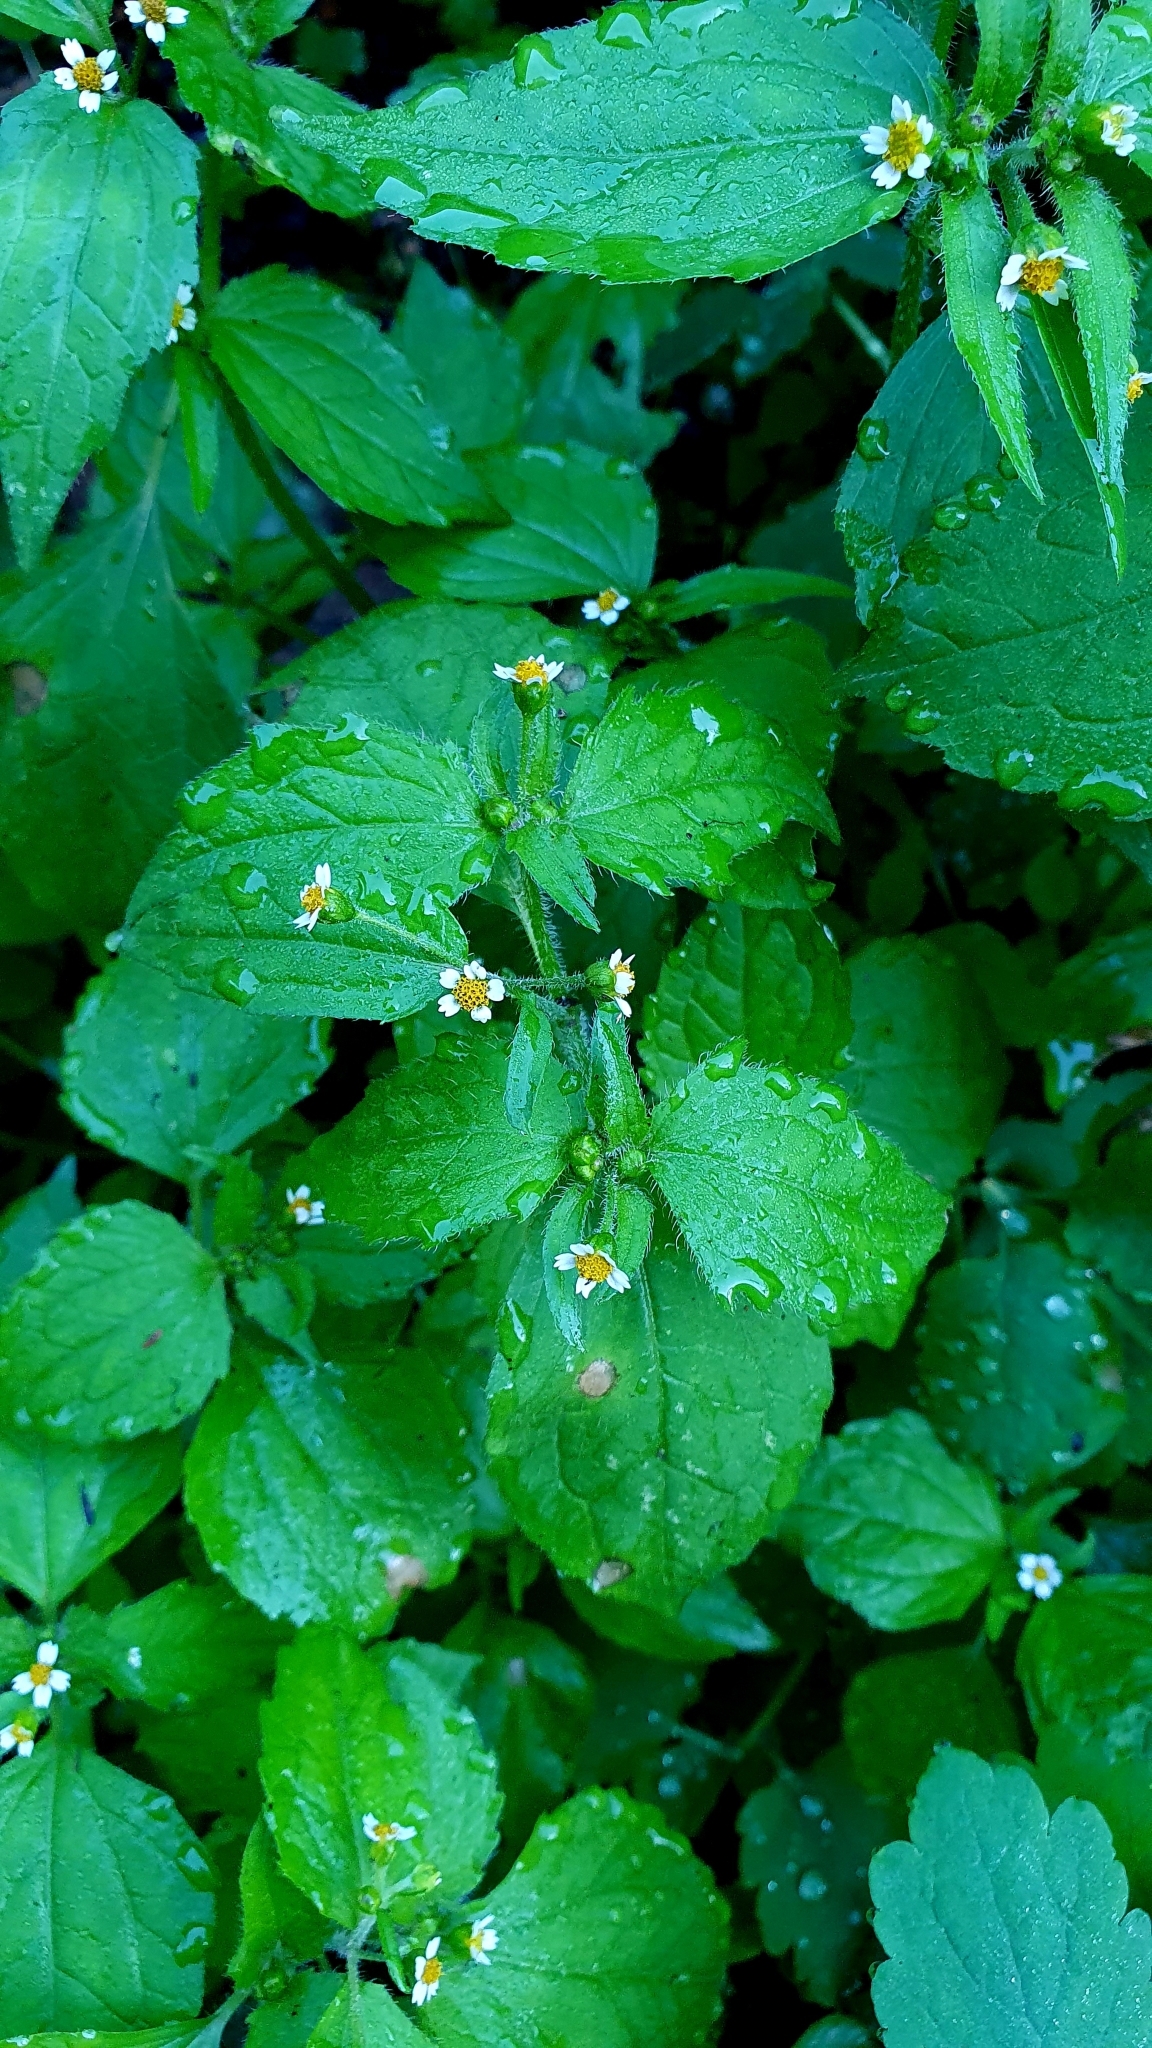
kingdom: Plantae
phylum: Tracheophyta
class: Magnoliopsida
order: Asterales
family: Asteraceae
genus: Galinsoga
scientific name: Galinsoga quadriradiata
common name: Shaggy soldier
